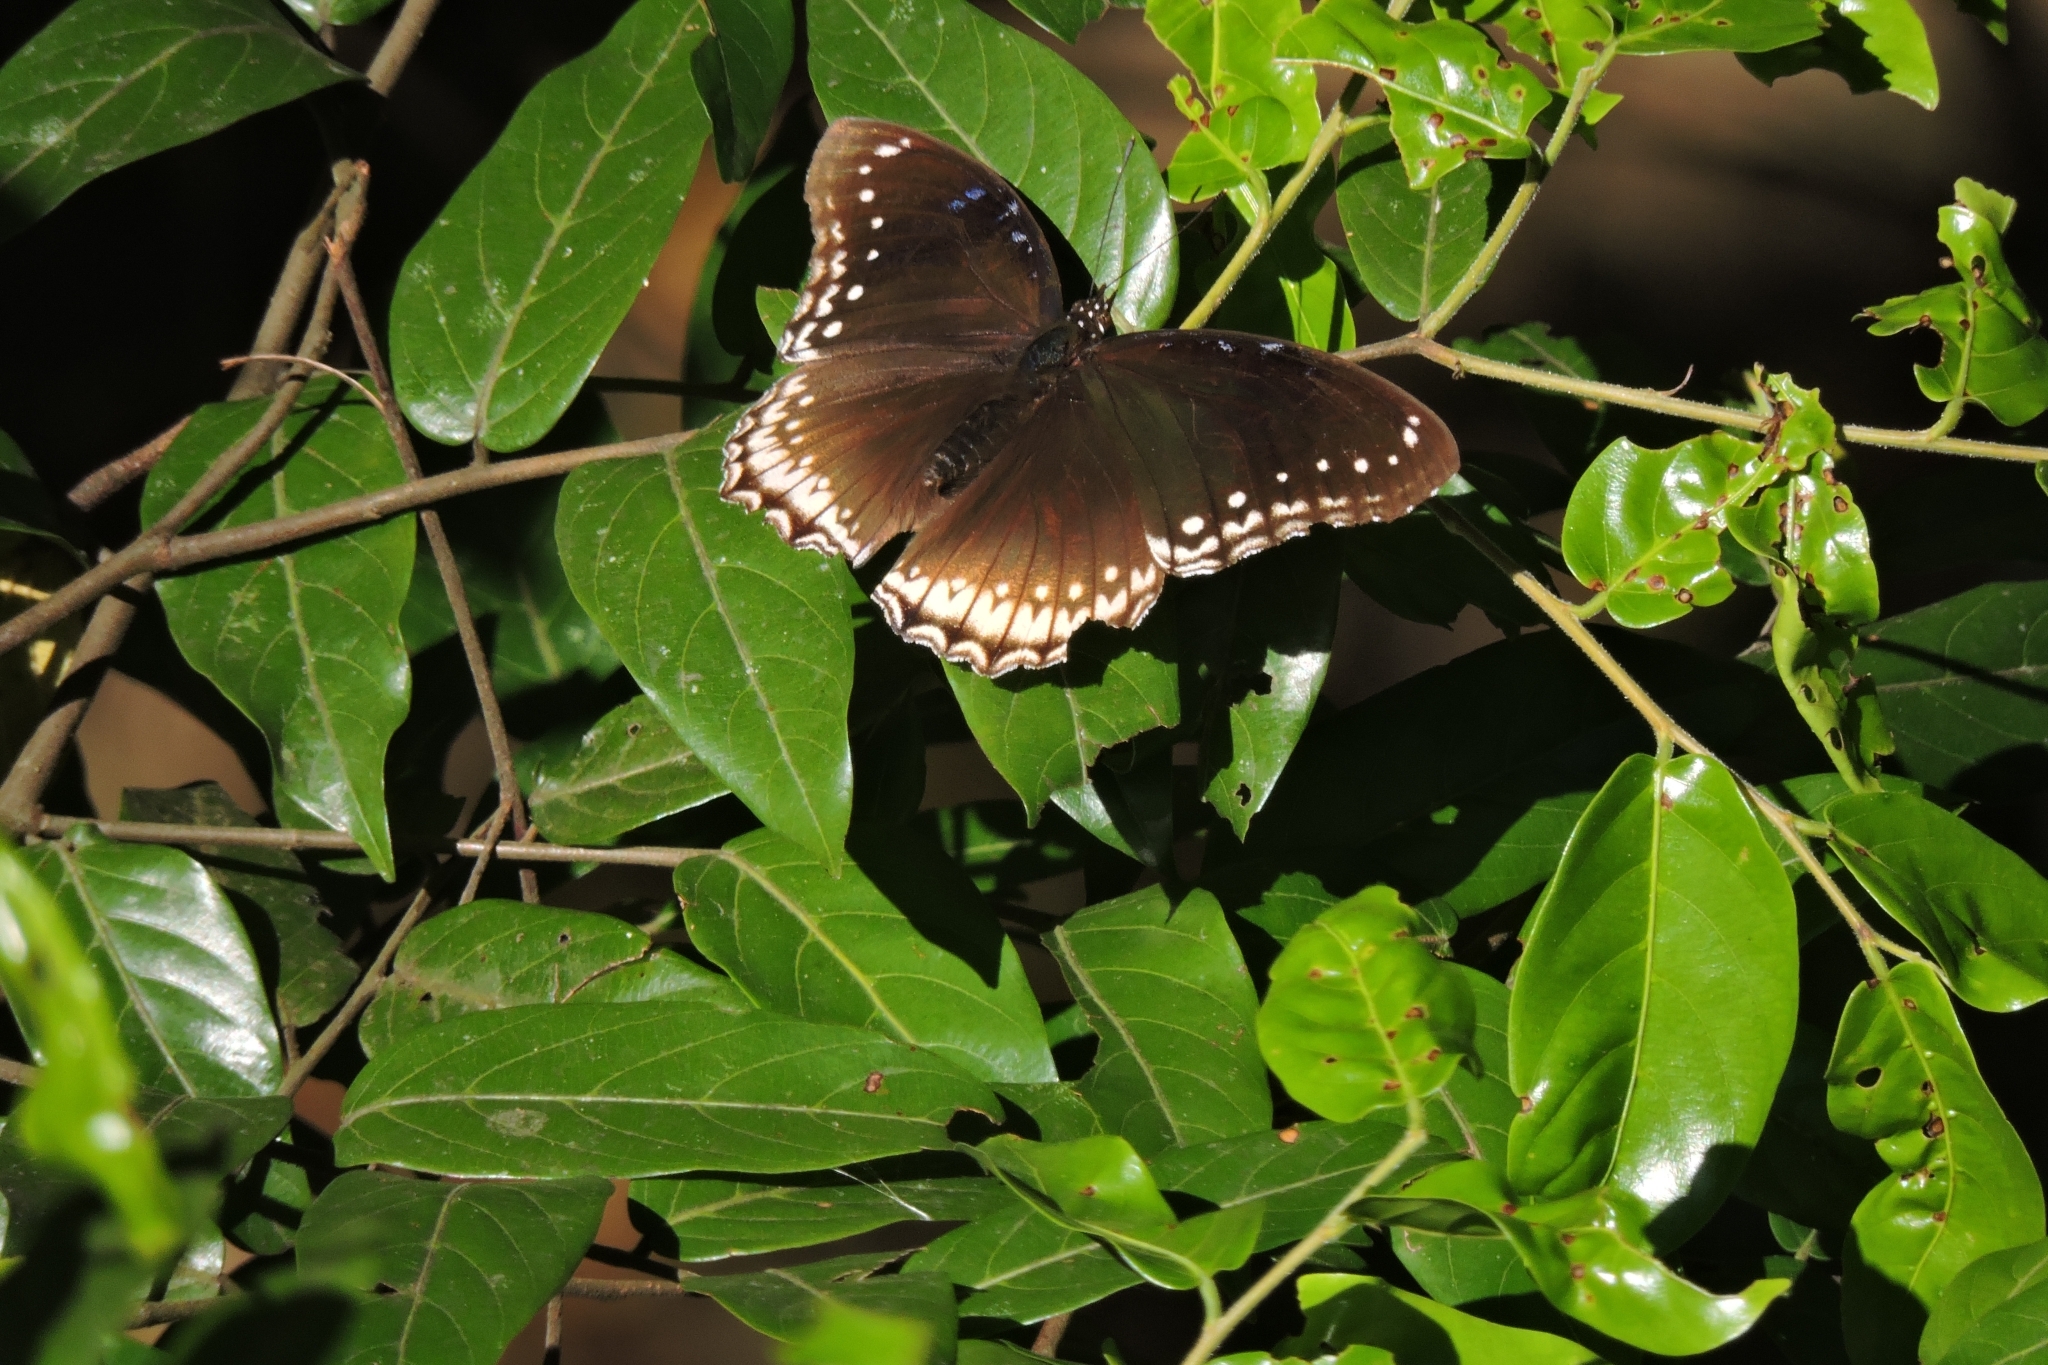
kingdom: Animalia
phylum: Arthropoda
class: Insecta
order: Lepidoptera
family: Nymphalidae
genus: Hypolimnas
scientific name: Hypolimnas bolina
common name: Great eggfly
